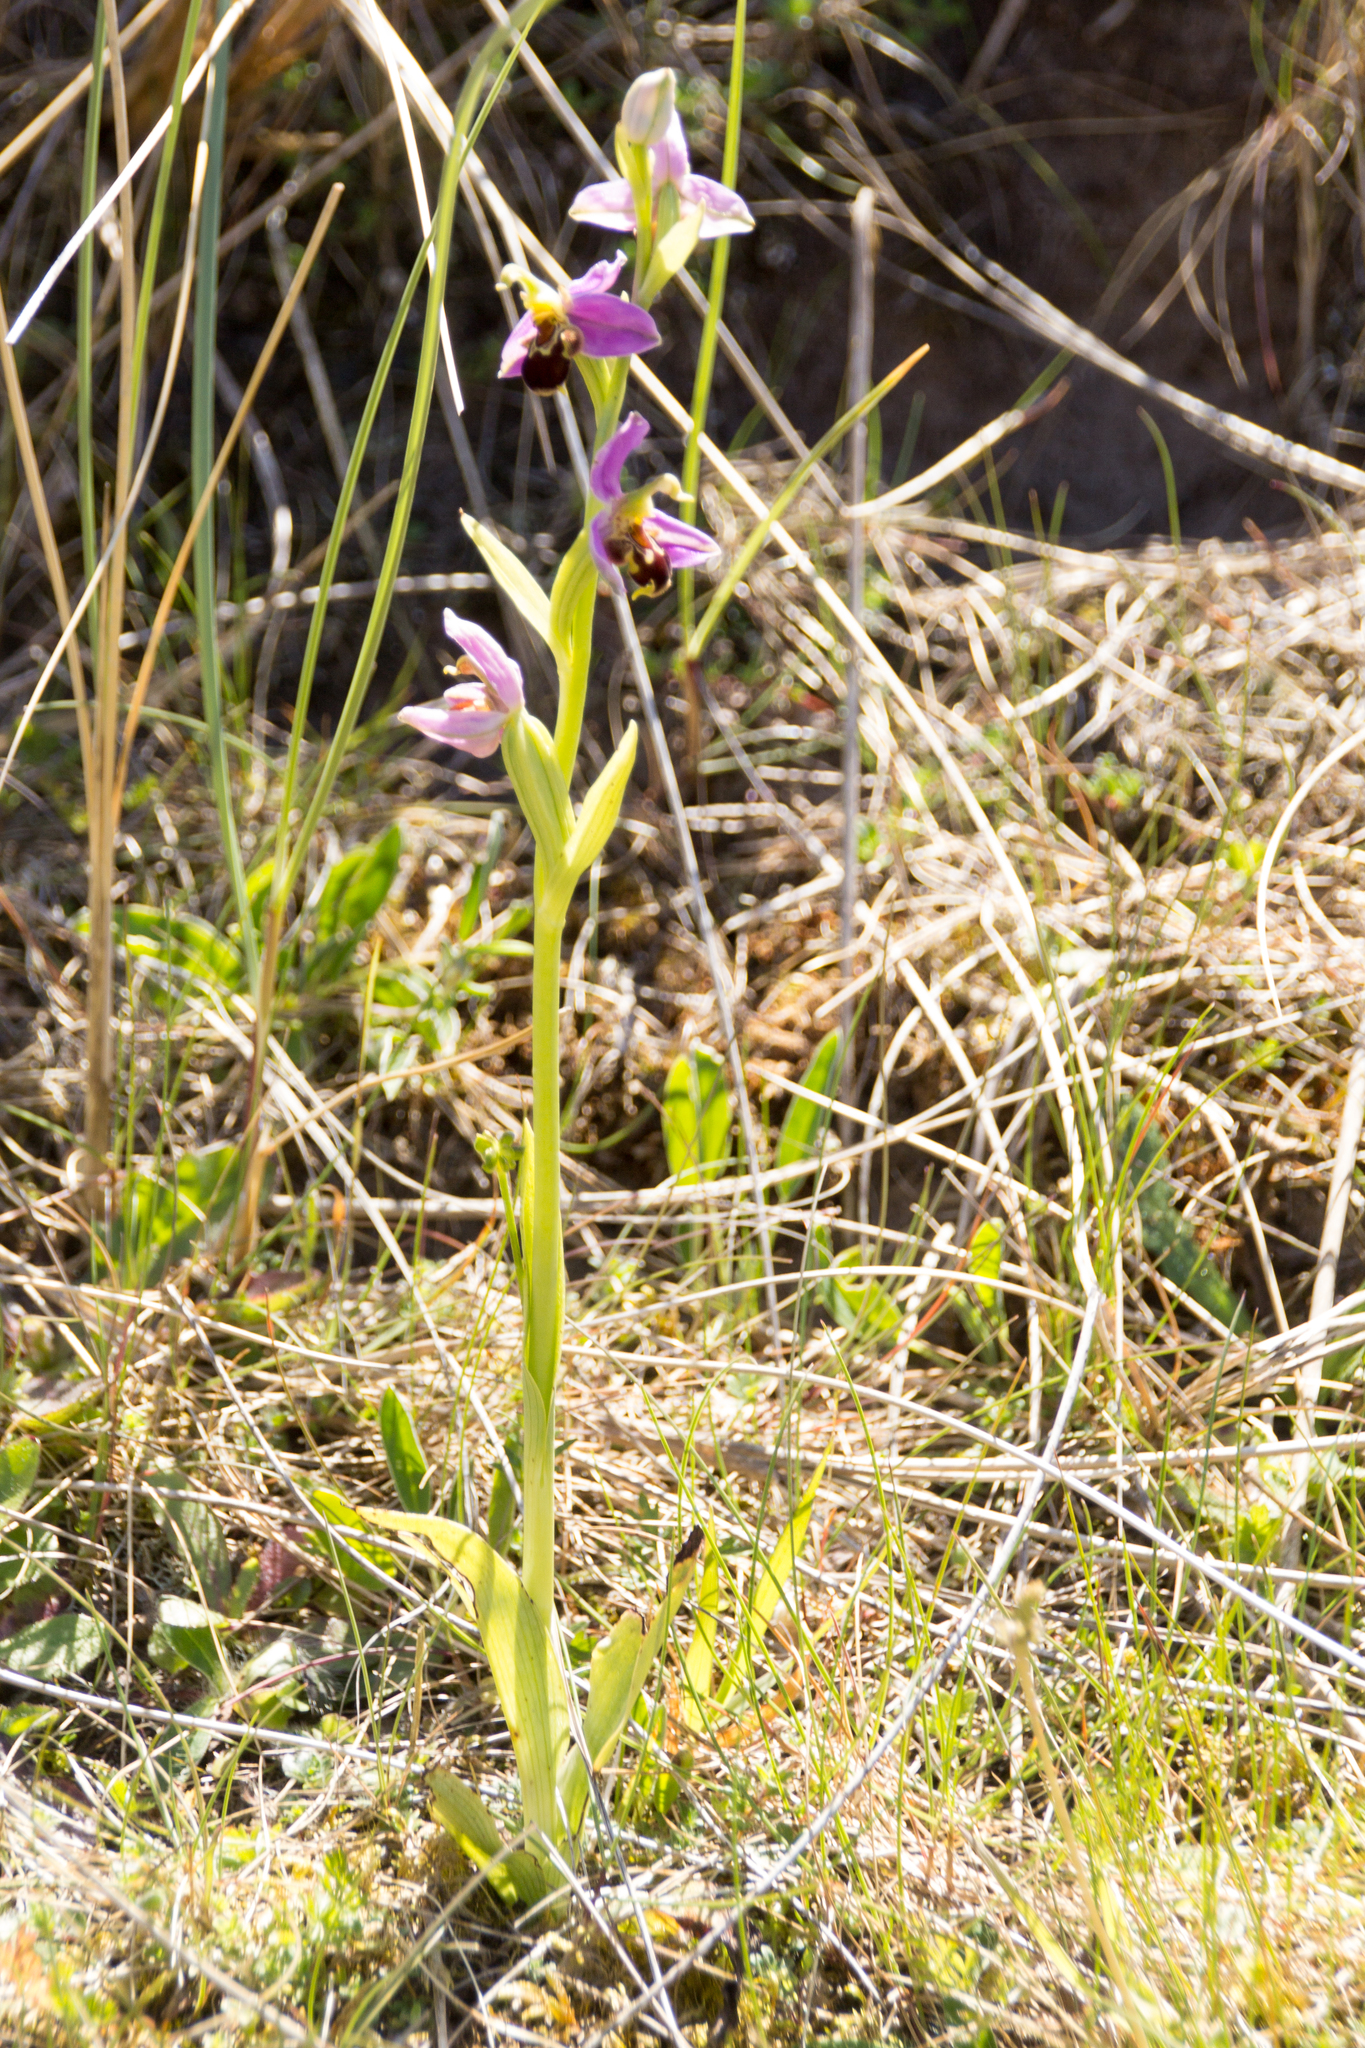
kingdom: Plantae
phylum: Tracheophyta
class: Liliopsida
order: Asparagales
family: Orchidaceae
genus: Ophrys
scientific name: Ophrys apifera
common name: Bee orchid
